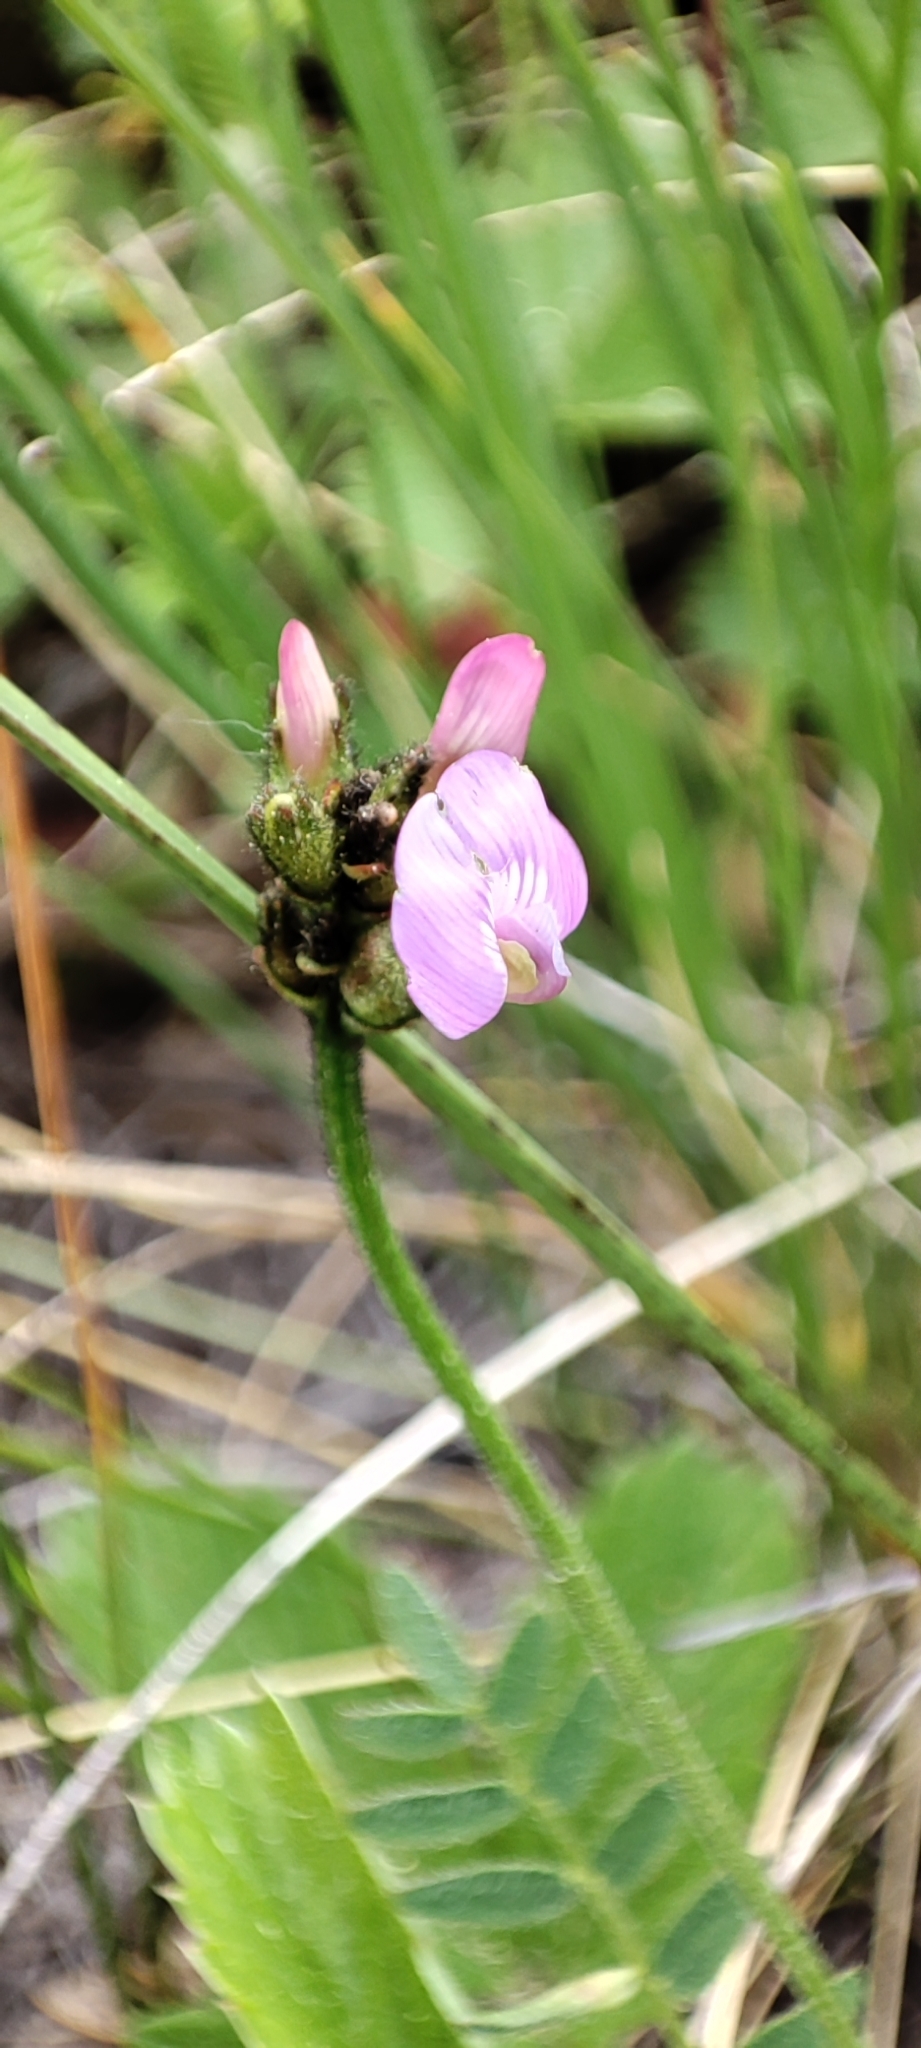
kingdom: Plantae
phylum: Tracheophyta
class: Magnoliopsida
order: Fabales
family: Fabaceae
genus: Astragalus
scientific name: Astragalus danicus
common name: Purple milk-vetch
